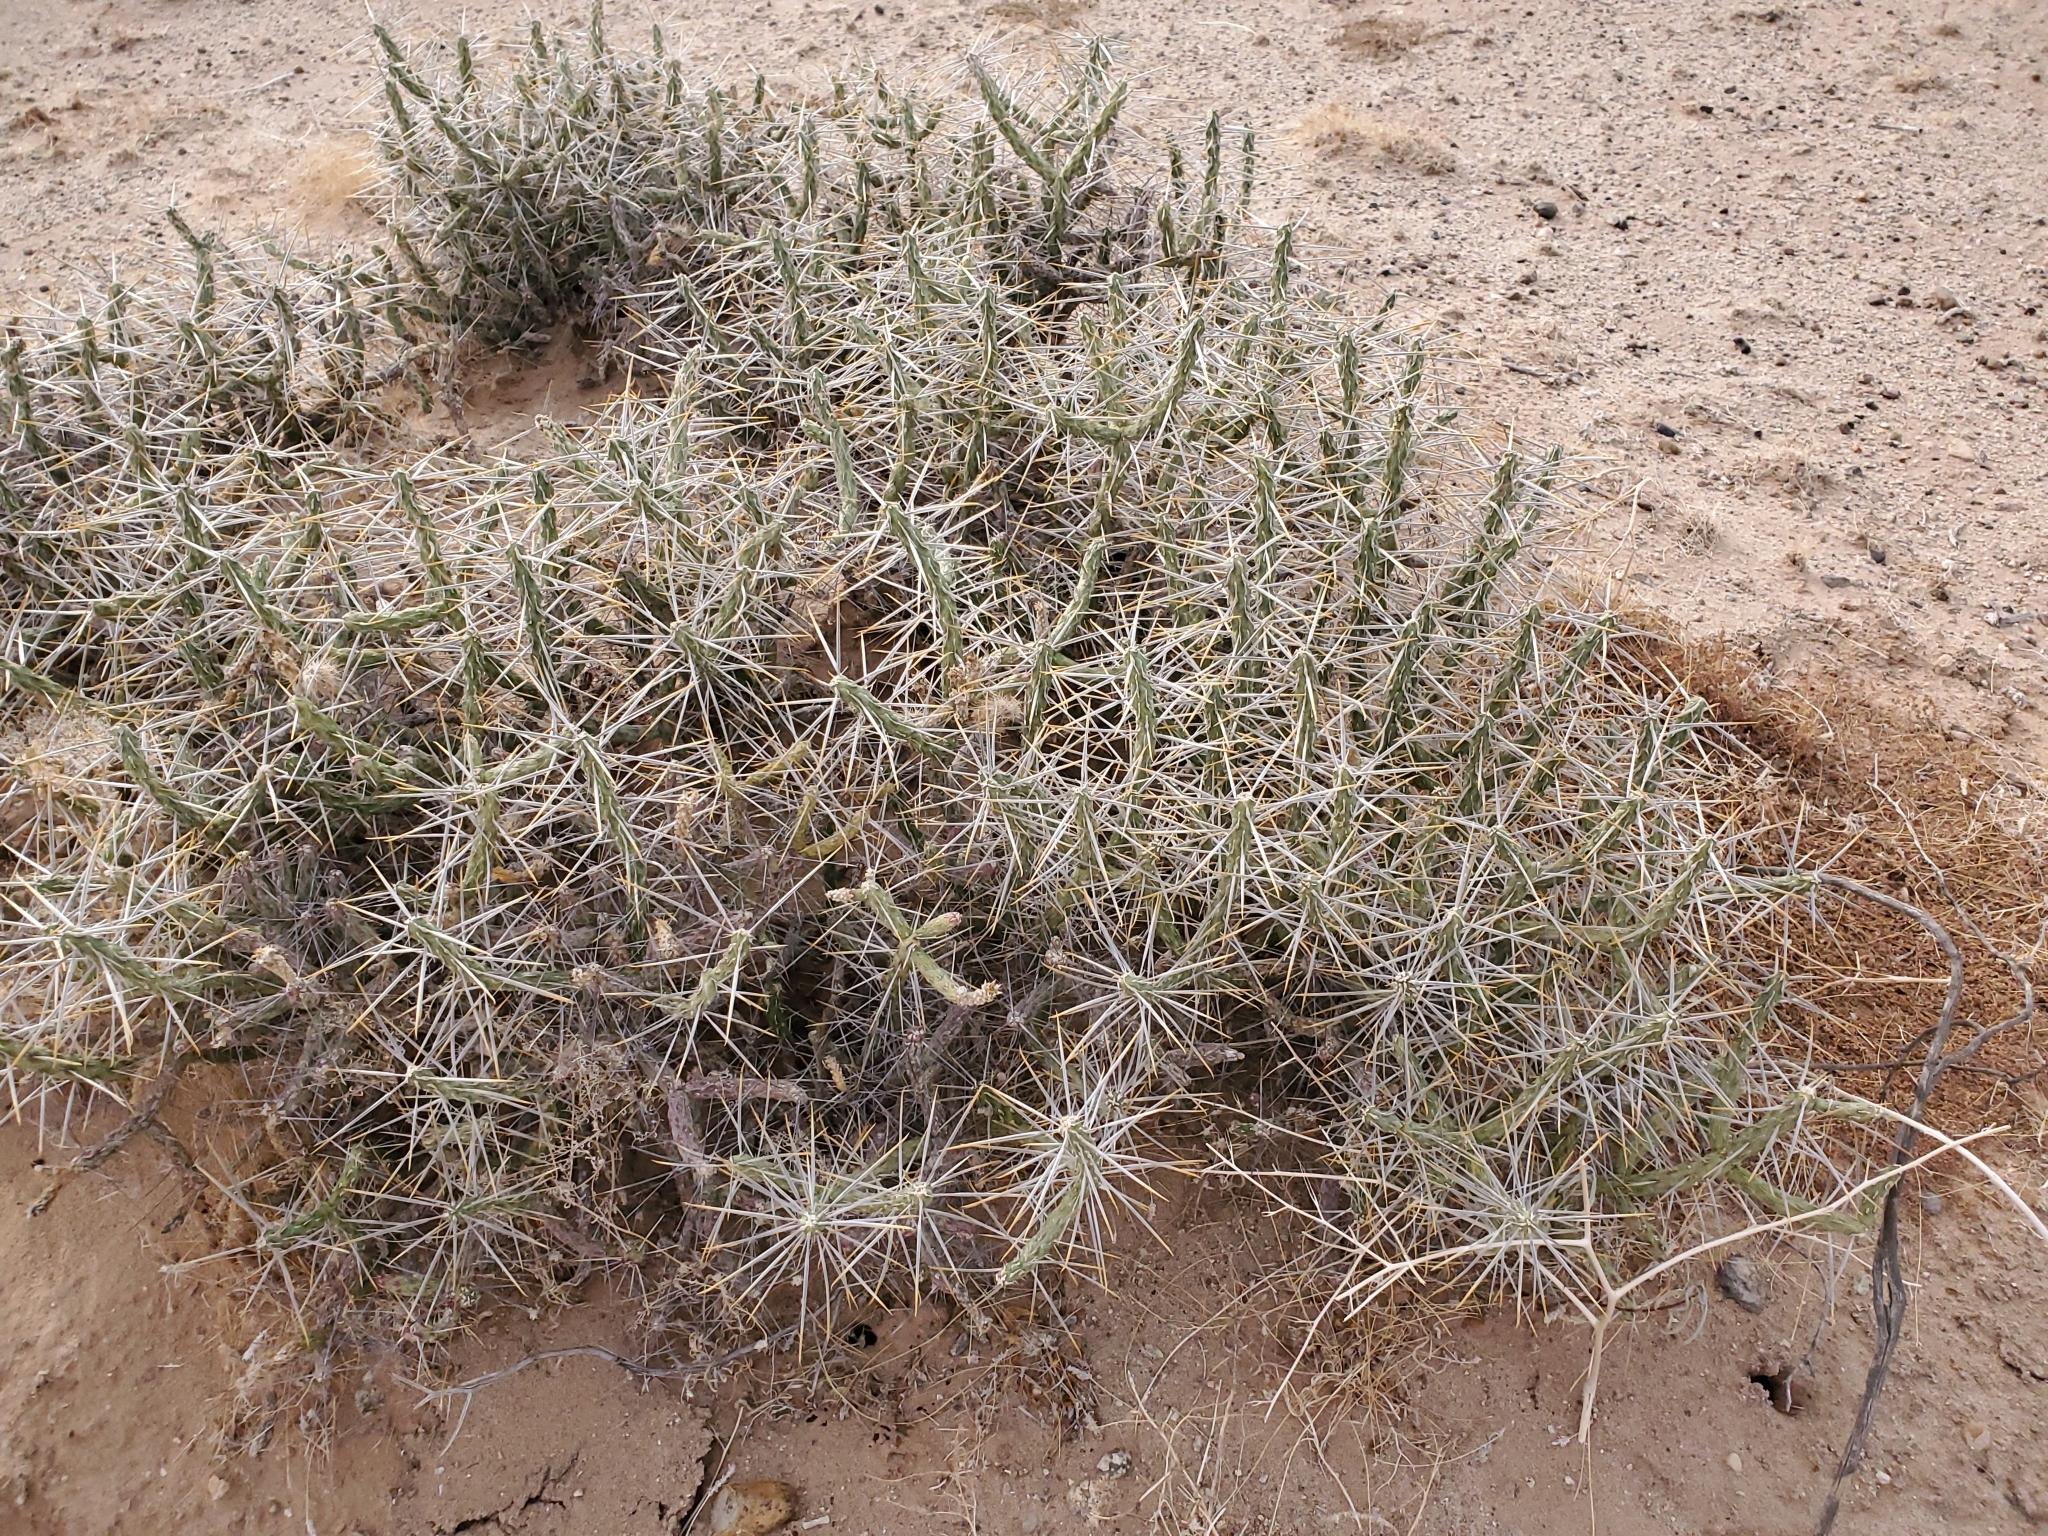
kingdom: Plantae
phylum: Tracheophyta
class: Magnoliopsida
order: Caryophyllales
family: Cactaceae
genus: Cylindropuntia
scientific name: Cylindropuntia ramosissima
